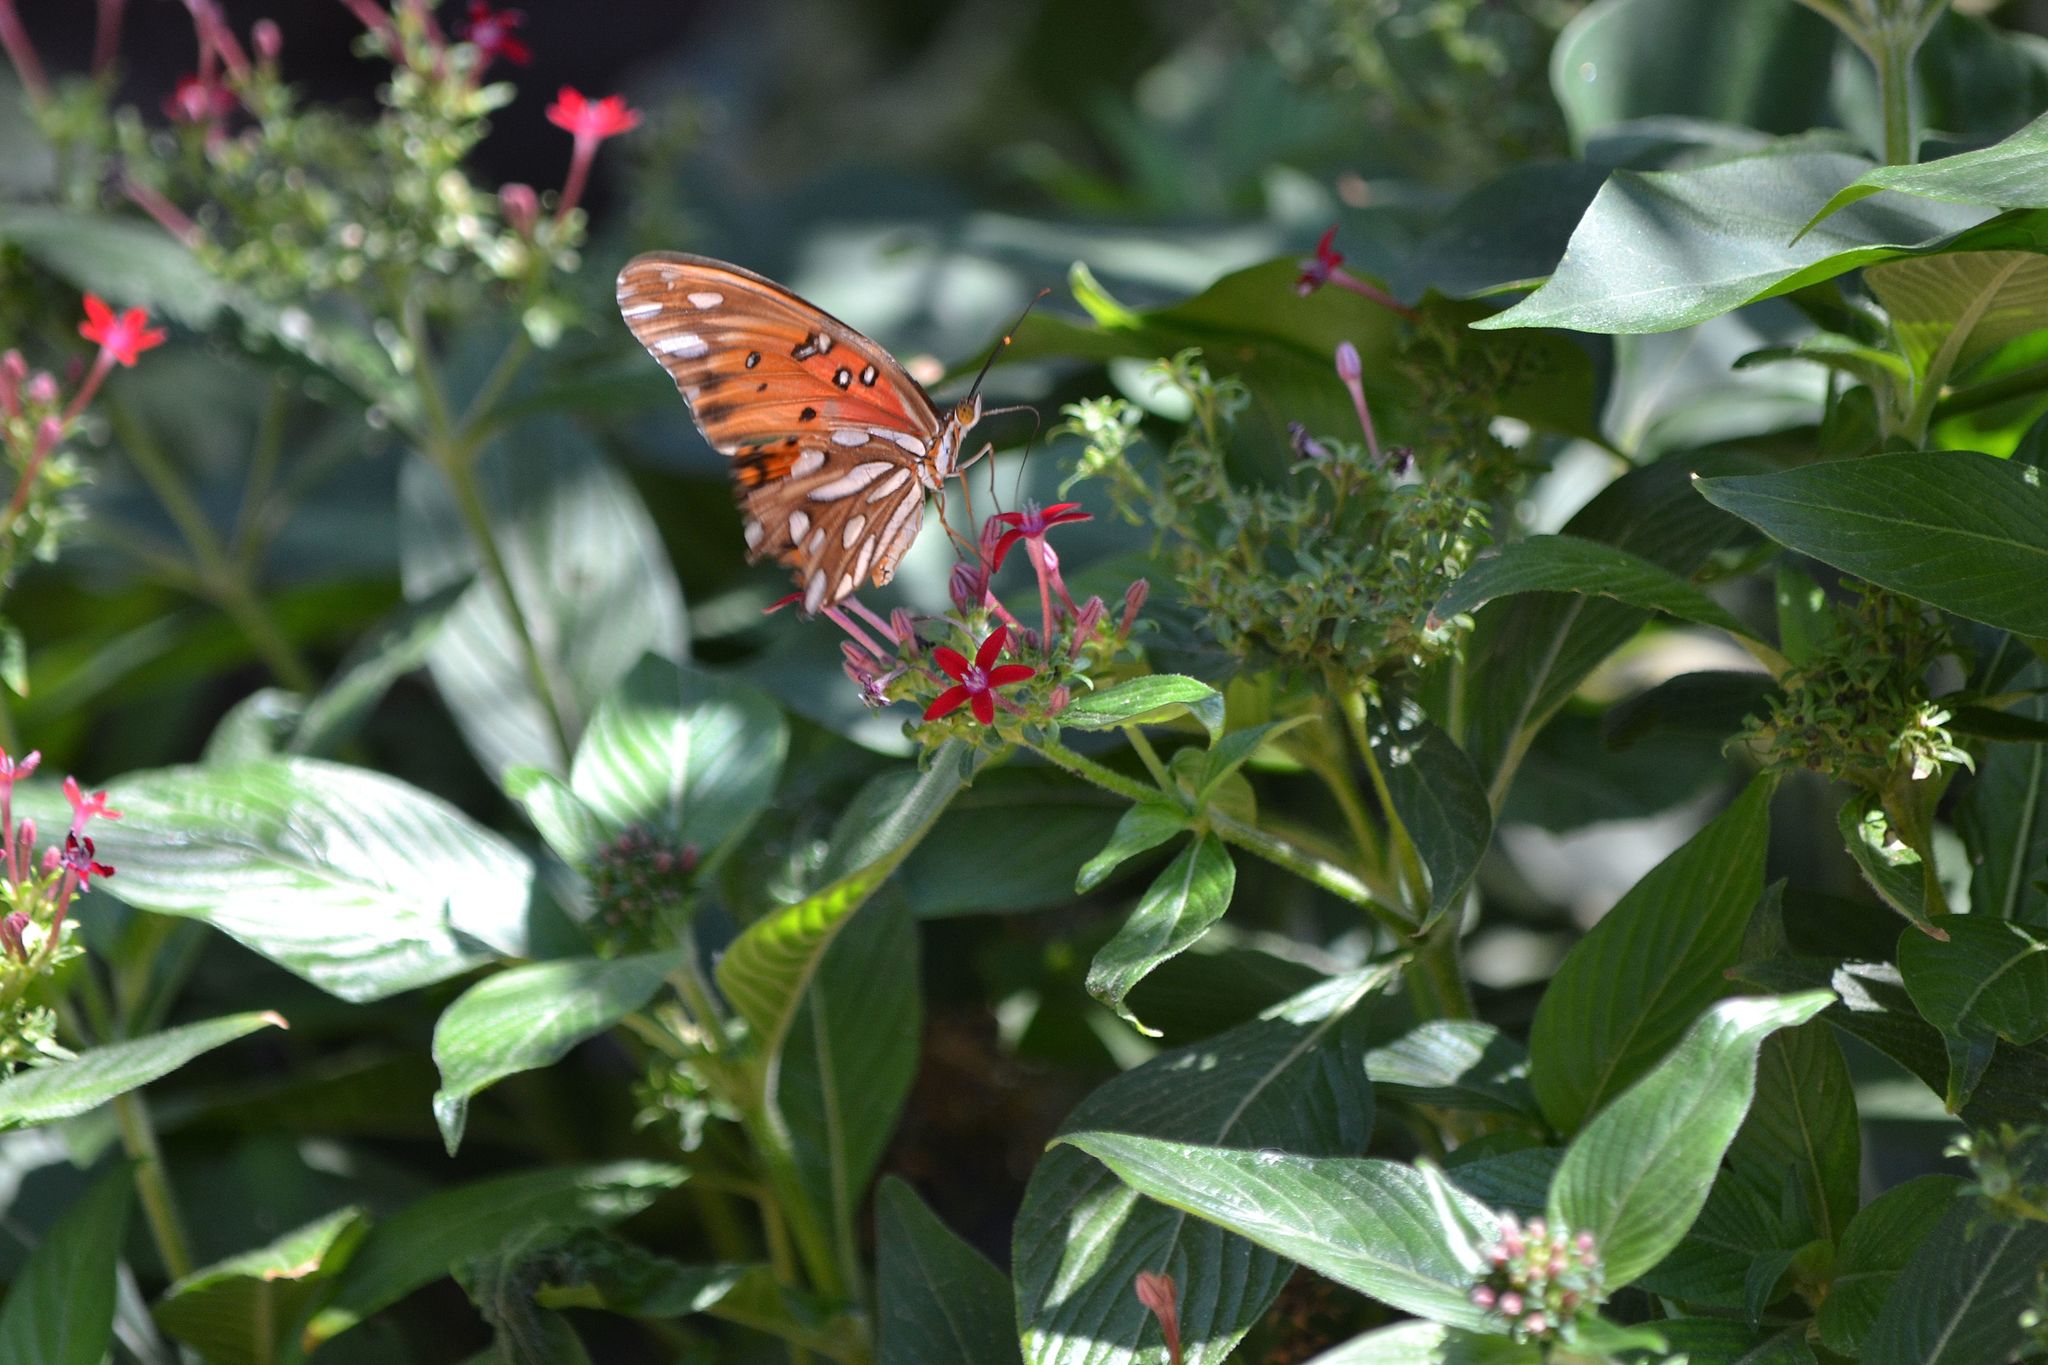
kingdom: Animalia
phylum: Arthropoda
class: Insecta
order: Lepidoptera
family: Nymphalidae
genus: Dione
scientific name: Dione vanillae
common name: Gulf fritillary
